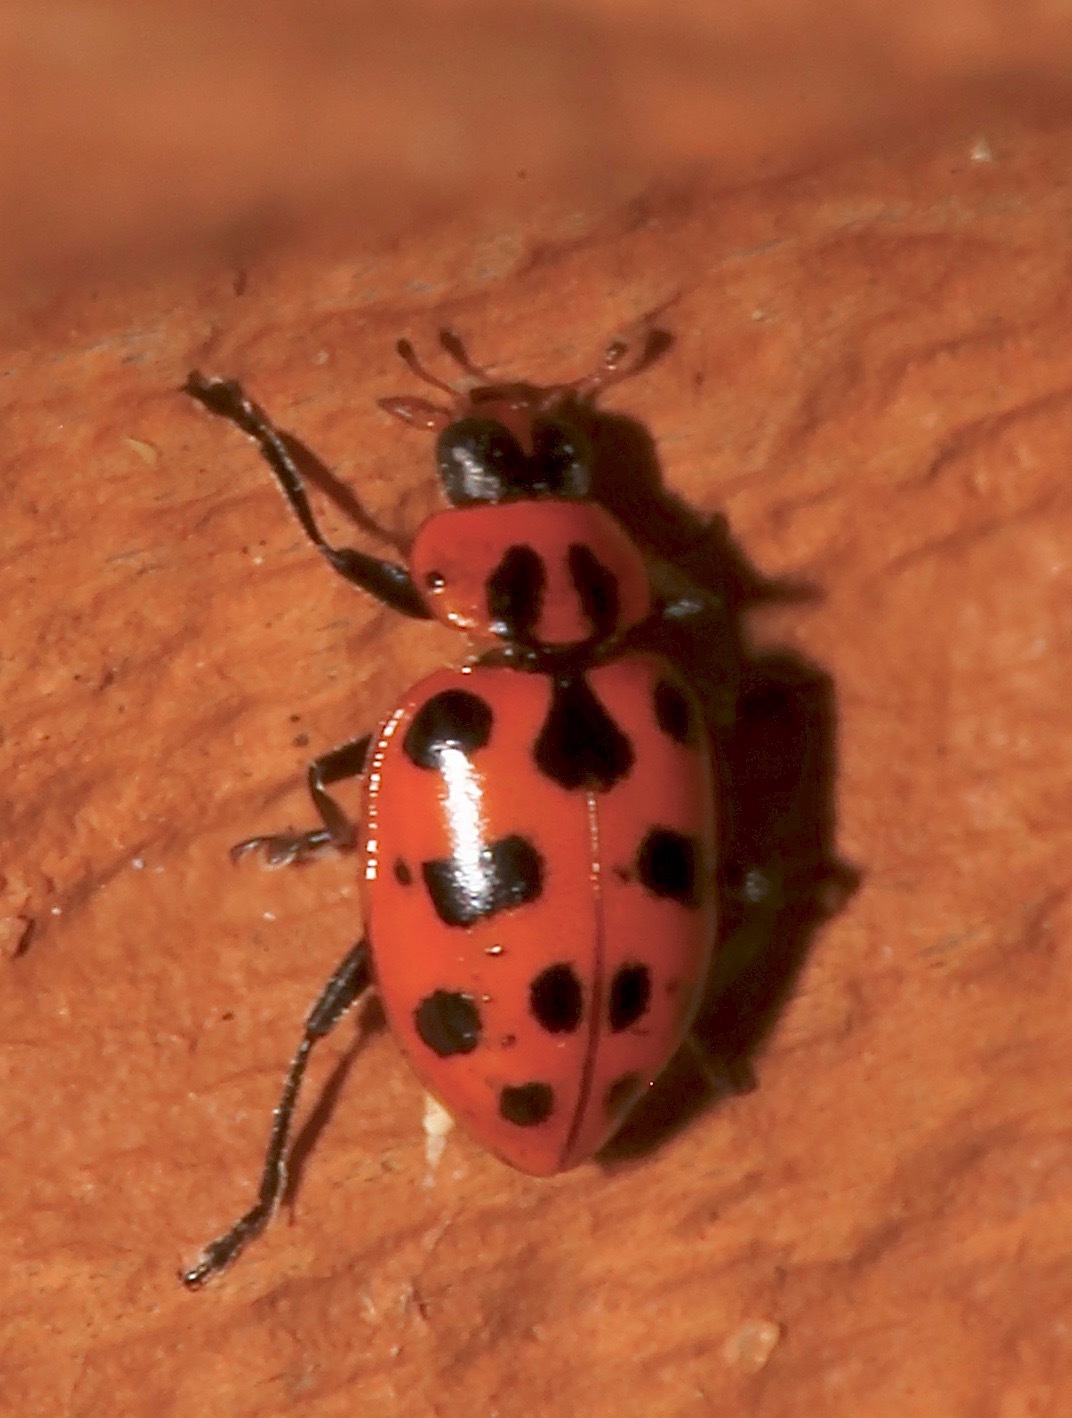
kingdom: Animalia
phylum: Arthropoda
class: Insecta
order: Coleoptera
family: Coccinellidae
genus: Coleomegilla
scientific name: Coleomegilla maculata
